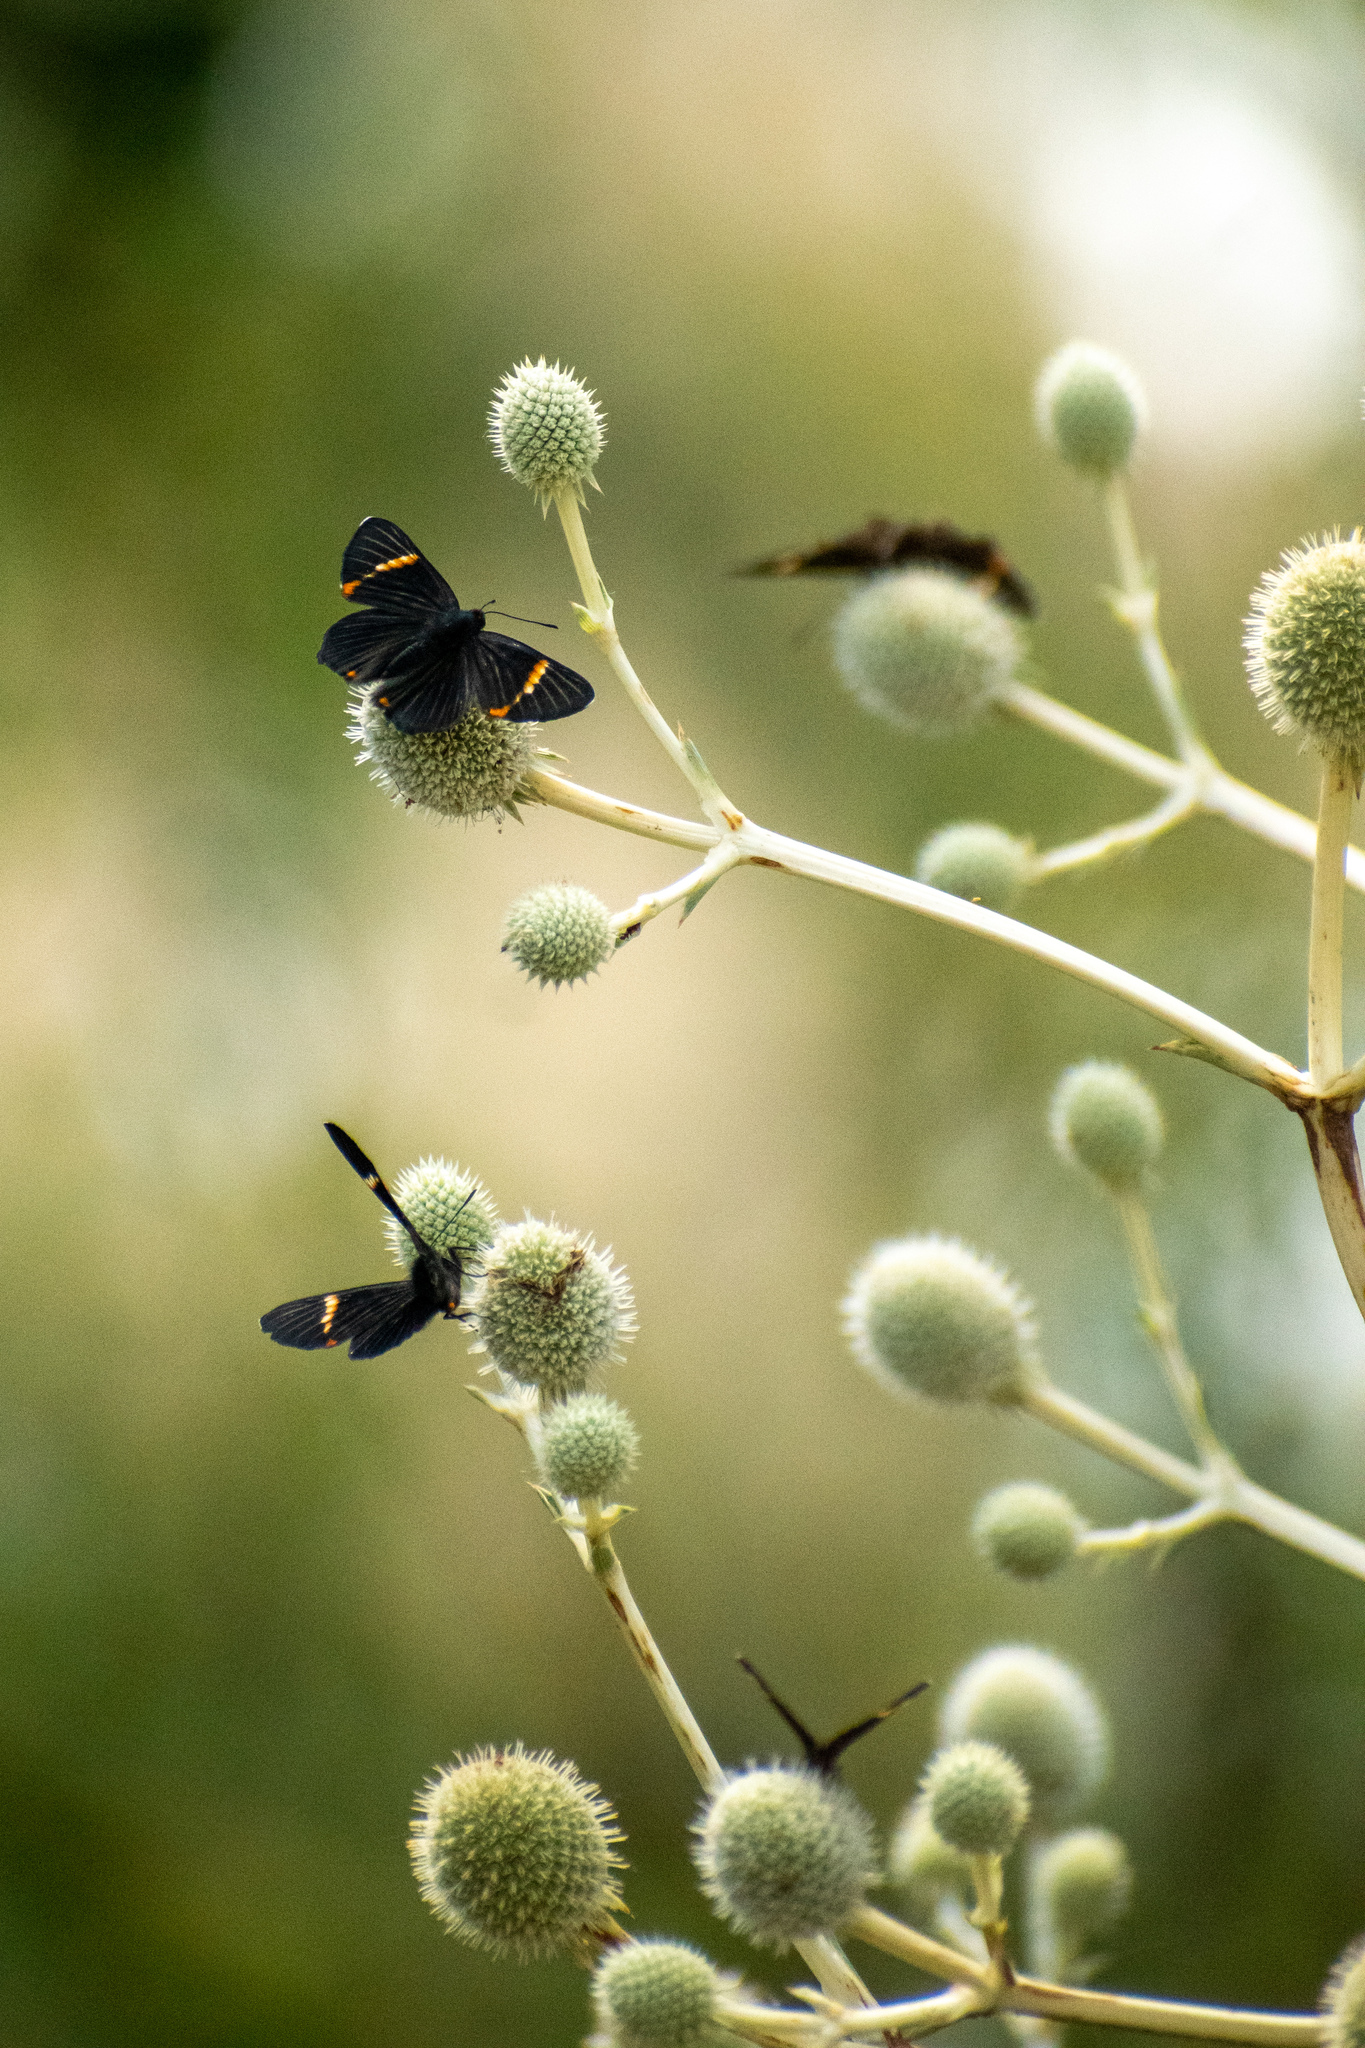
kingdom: Animalia
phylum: Arthropoda
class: Insecta
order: Lepidoptera
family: Riodinidae
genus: Riodina
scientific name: Riodina lycisca
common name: Lycisca metalmark
